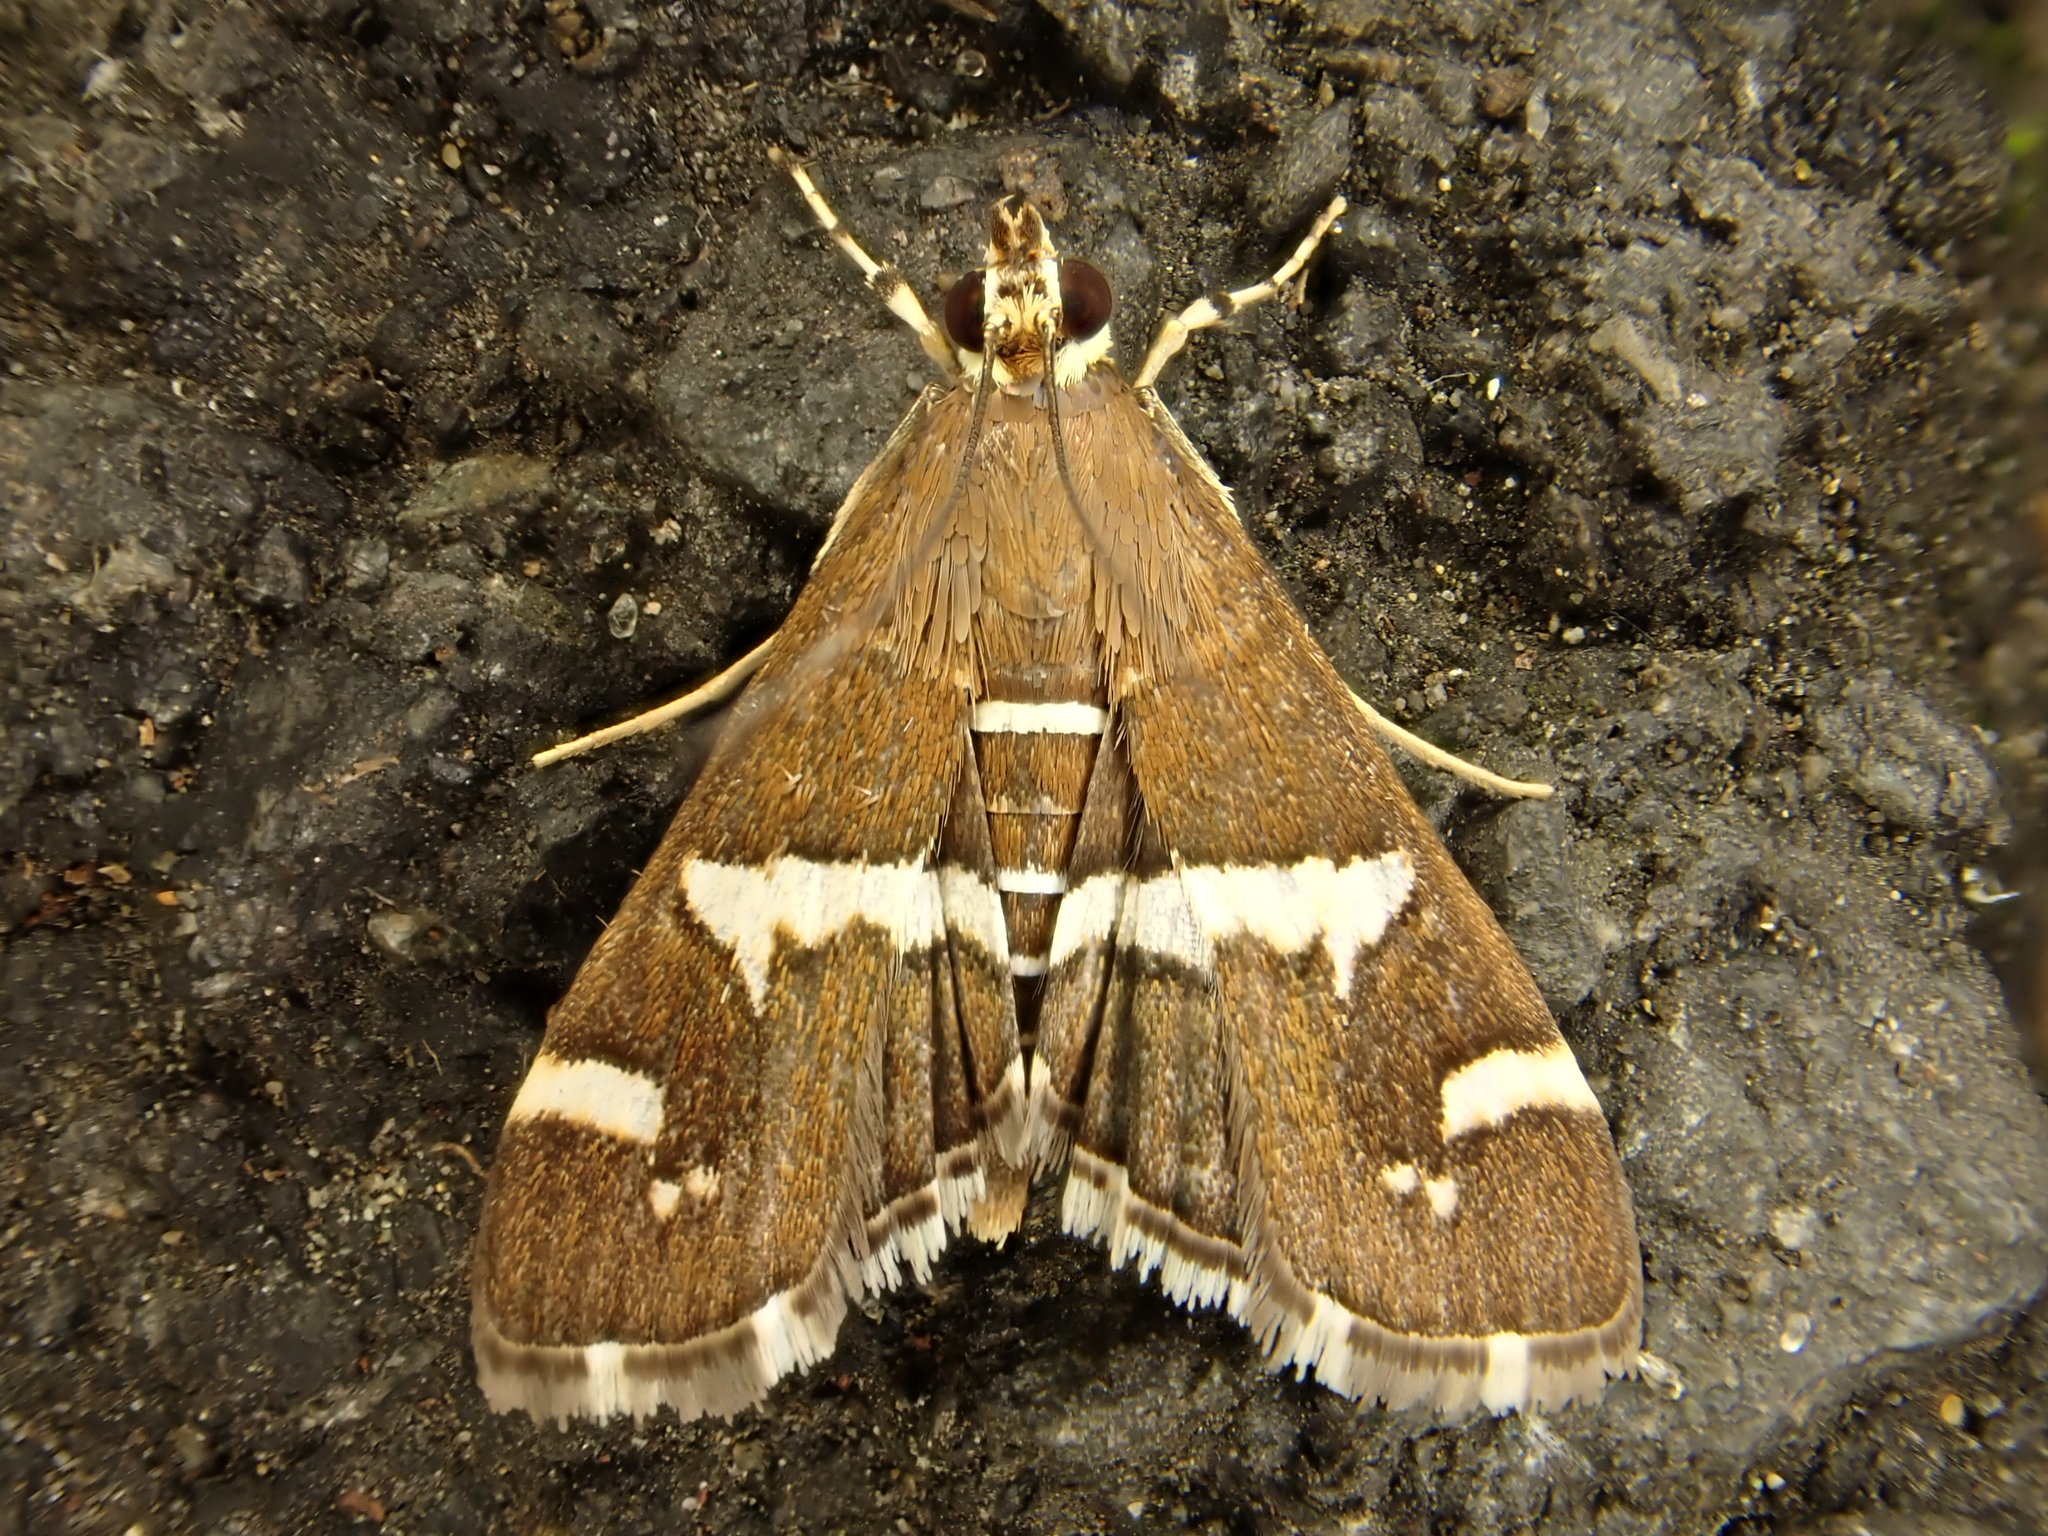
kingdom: Animalia
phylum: Arthropoda
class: Insecta
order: Lepidoptera
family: Crambidae
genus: Spoladea
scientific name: Spoladea recurvalis
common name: Beet webworm moth
